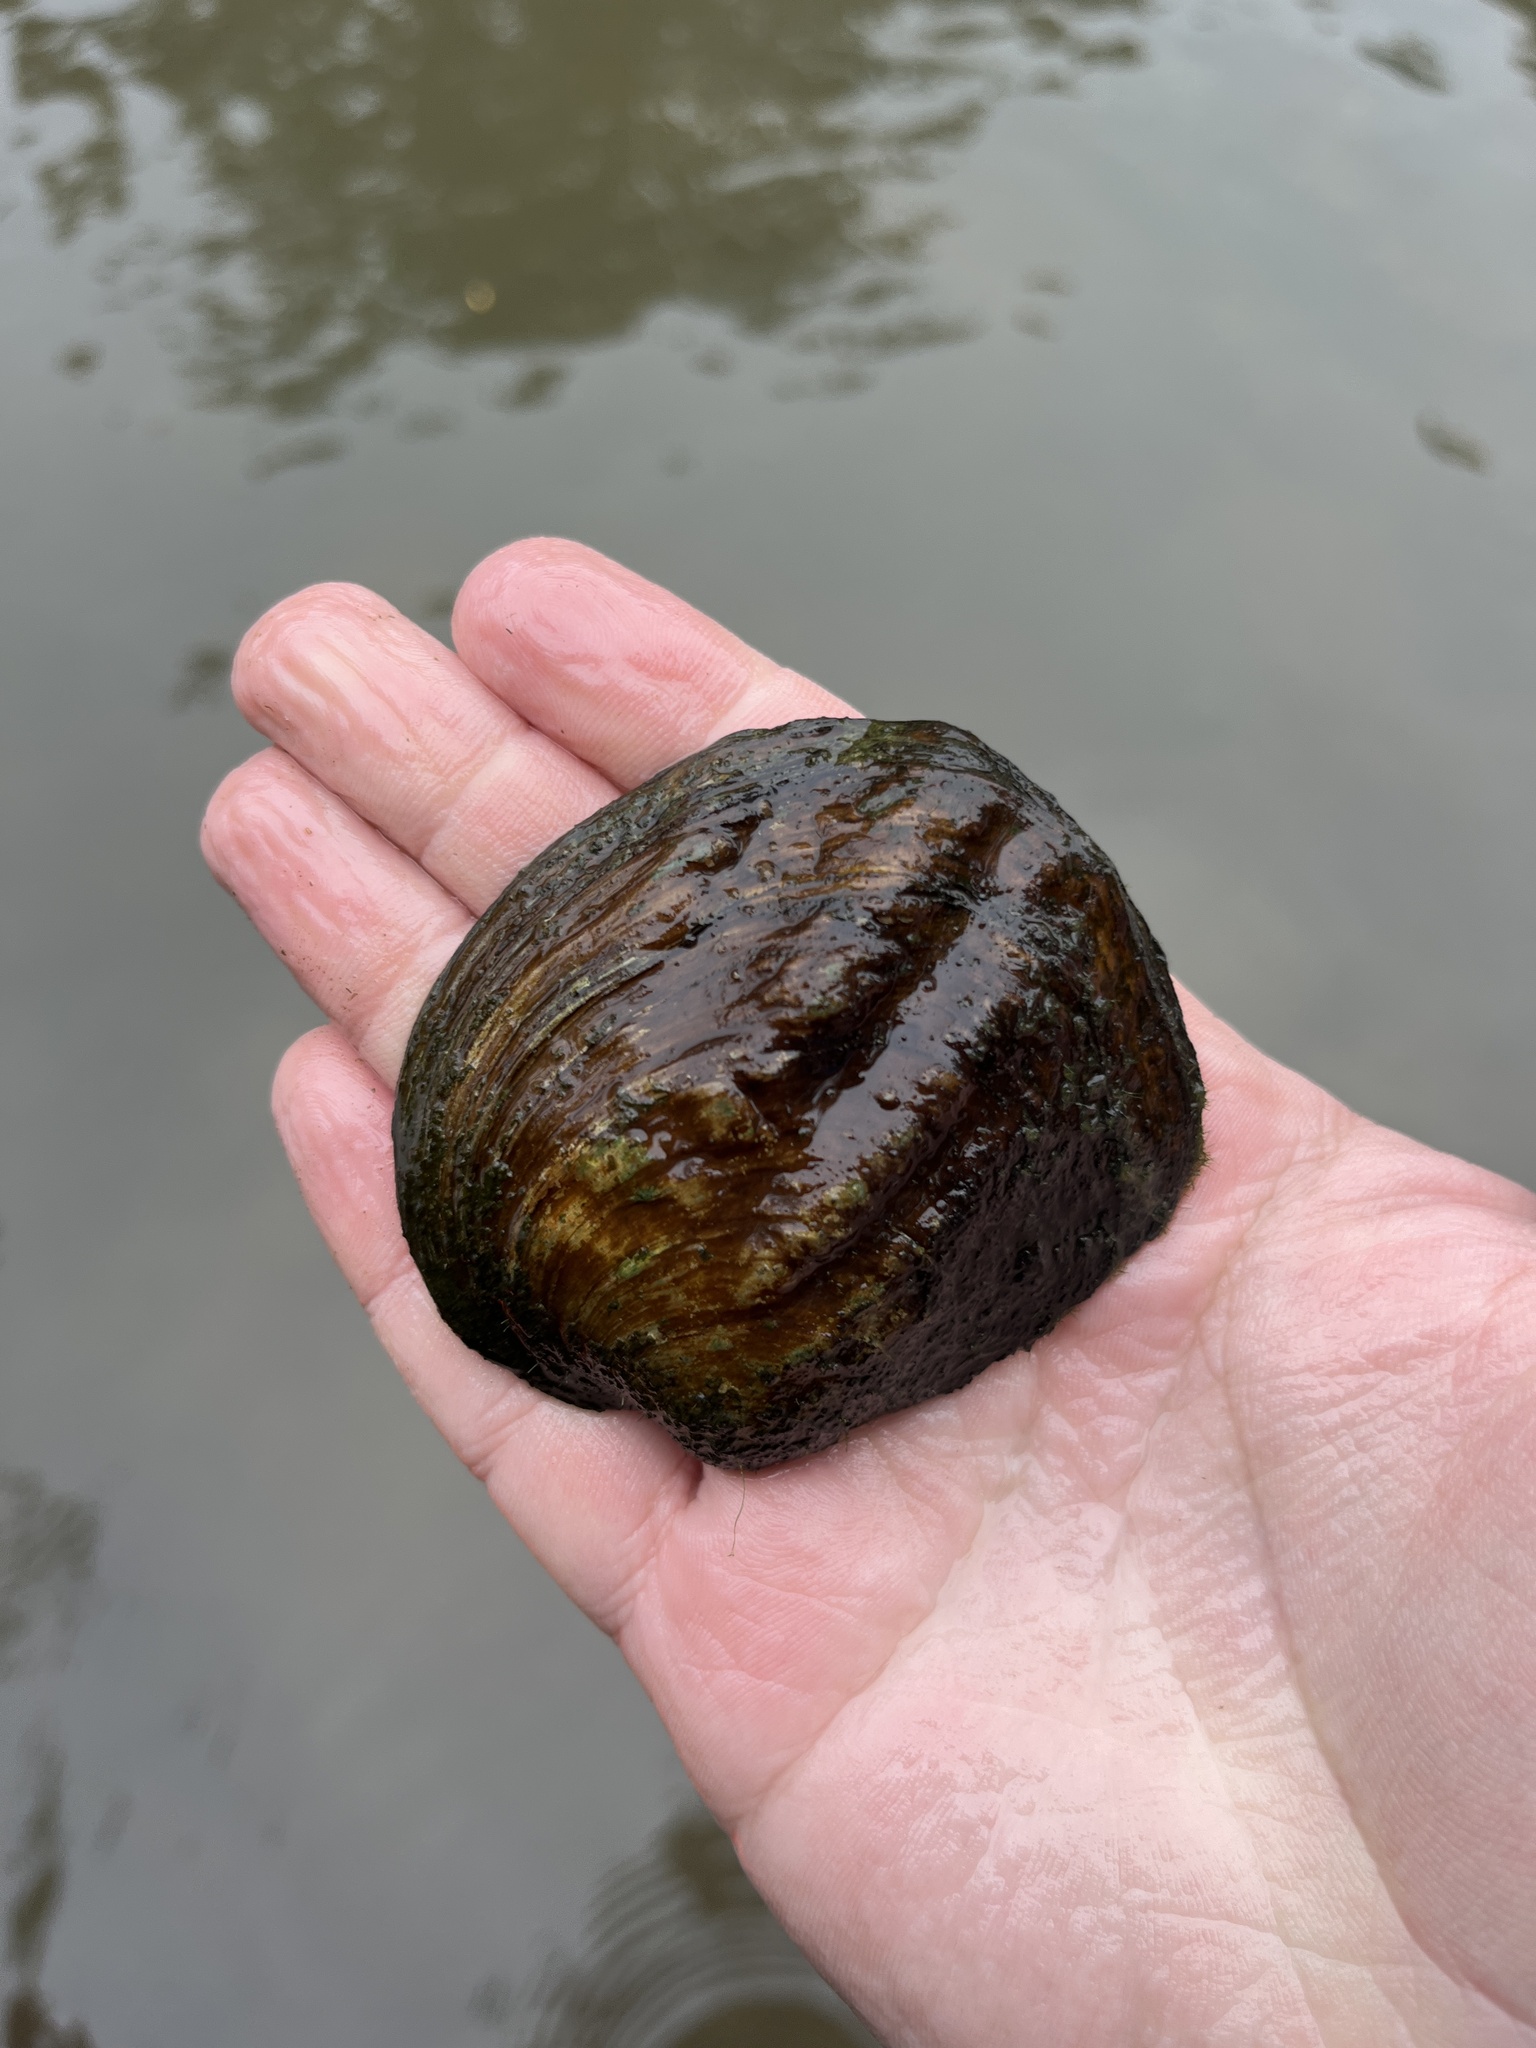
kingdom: Animalia
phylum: Mollusca
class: Bivalvia
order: Unionida
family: Unionidae
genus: Amblema
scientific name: Amblema plicata
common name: Threeridge
